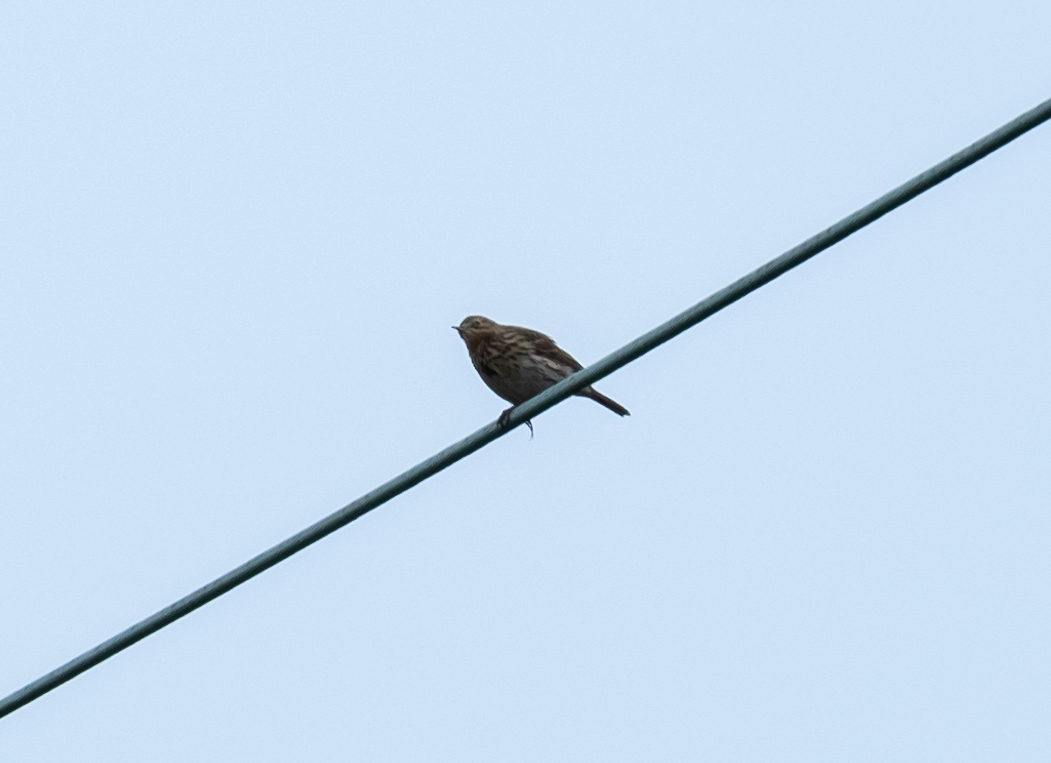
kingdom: Animalia
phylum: Chordata
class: Aves
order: Passeriformes
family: Motacillidae
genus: Anthus
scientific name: Anthus pratensis
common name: Meadow pipit
